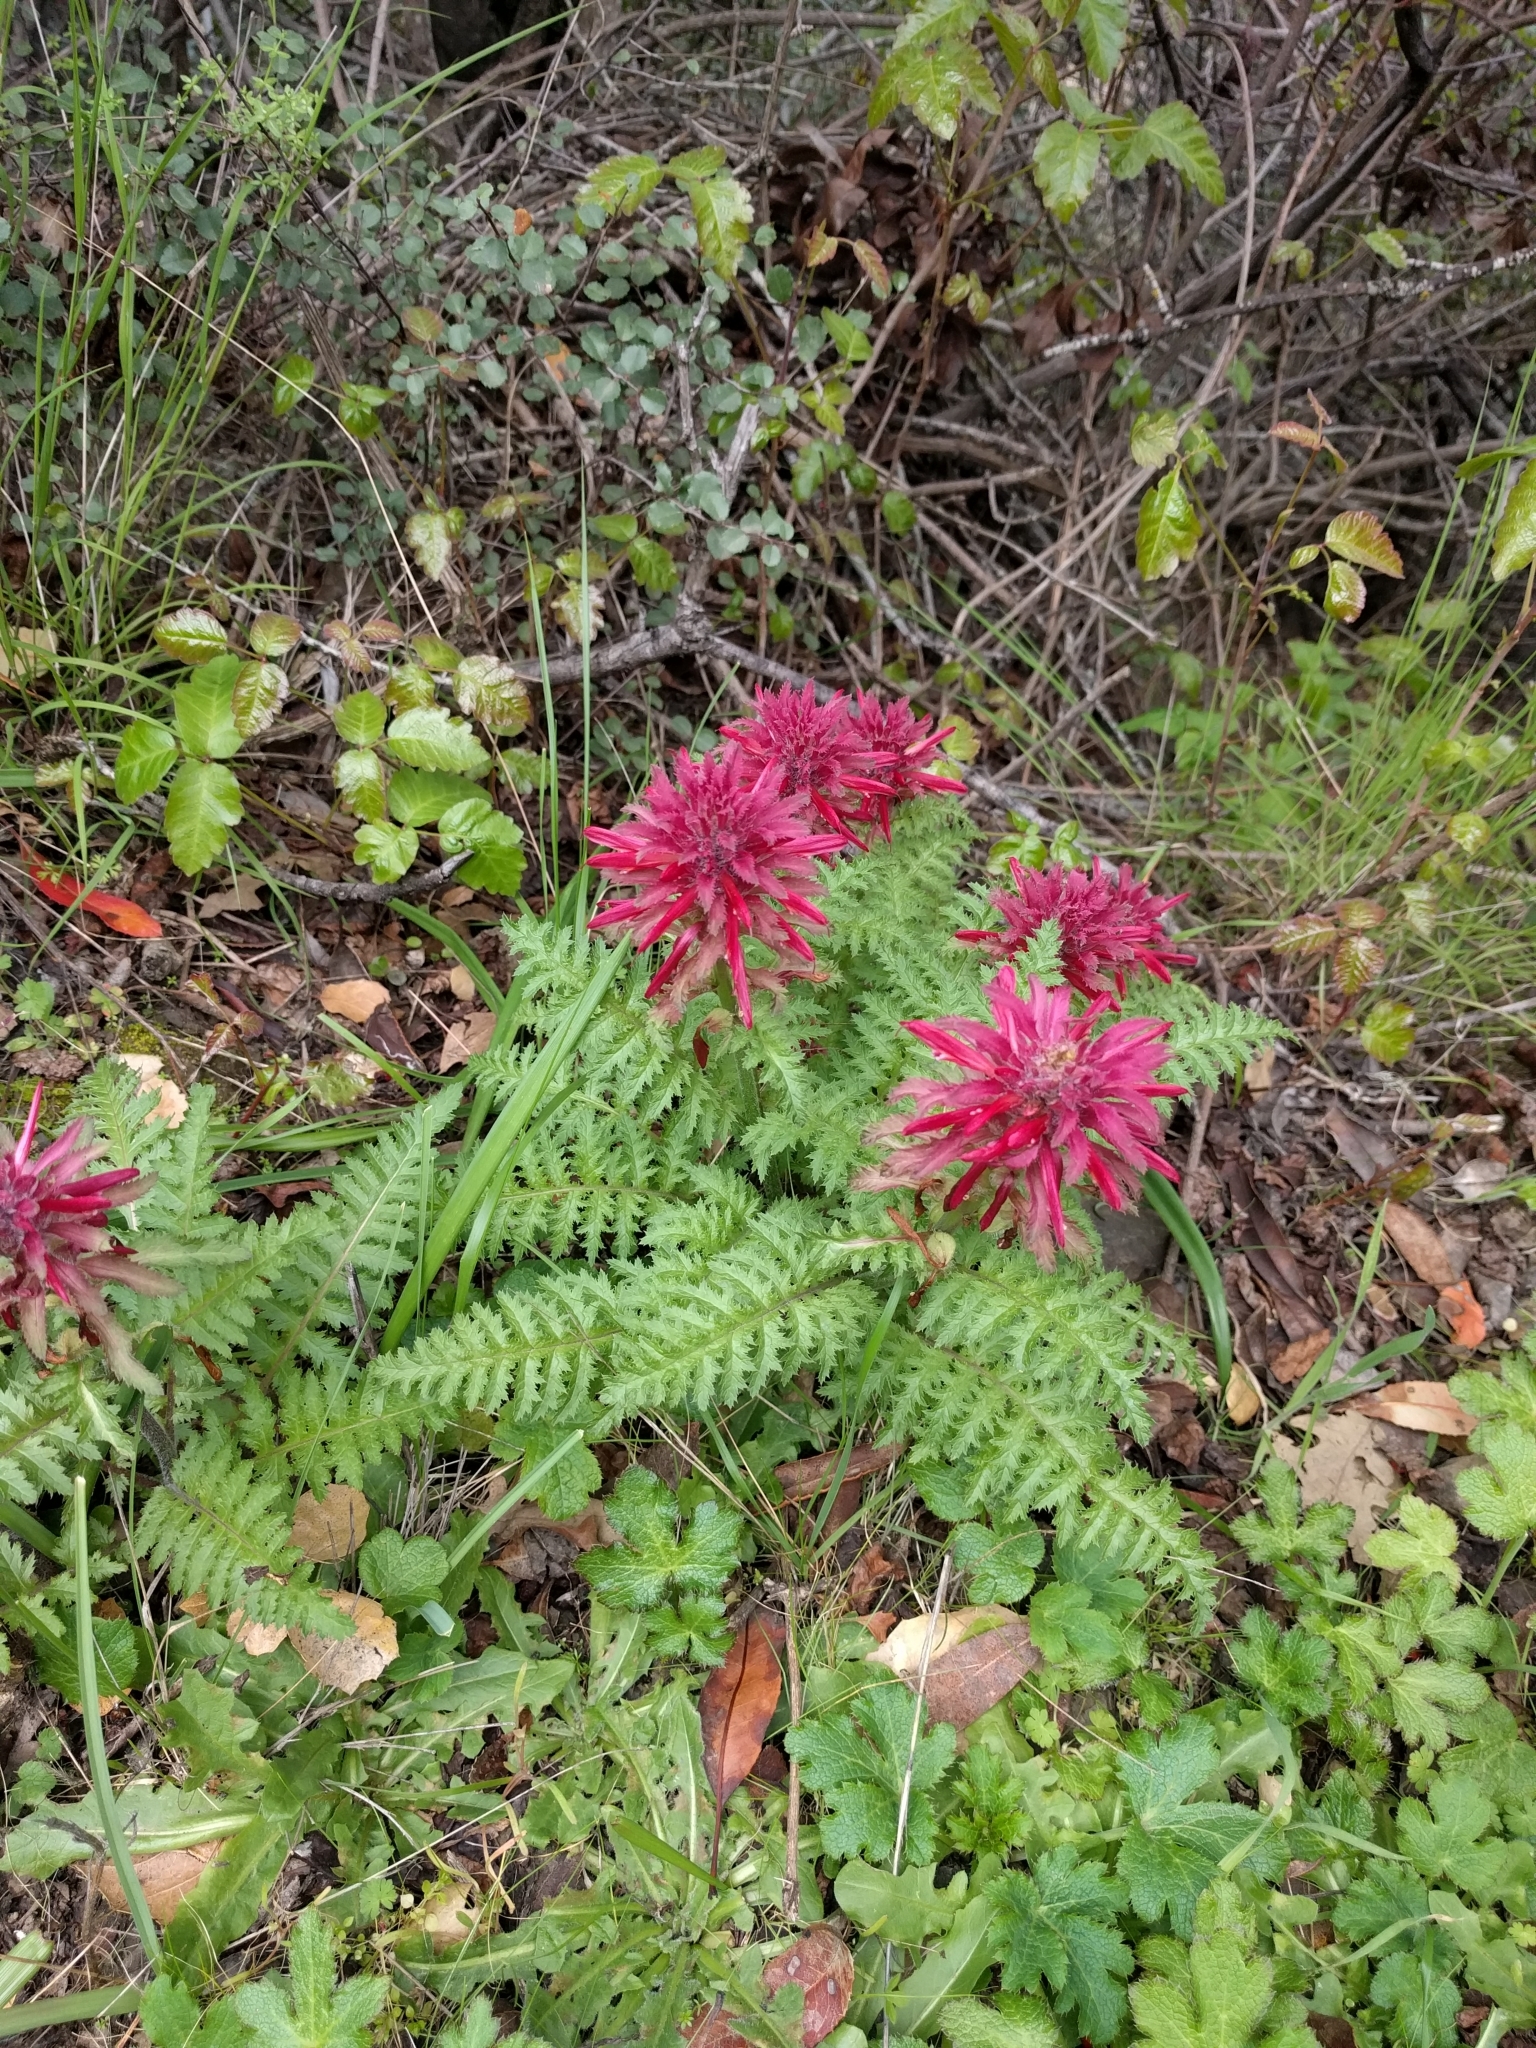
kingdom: Plantae
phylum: Tracheophyta
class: Magnoliopsida
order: Lamiales
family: Orobanchaceae
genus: Pedicularis
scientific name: Pedicularis densiflora
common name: Indian warrior
